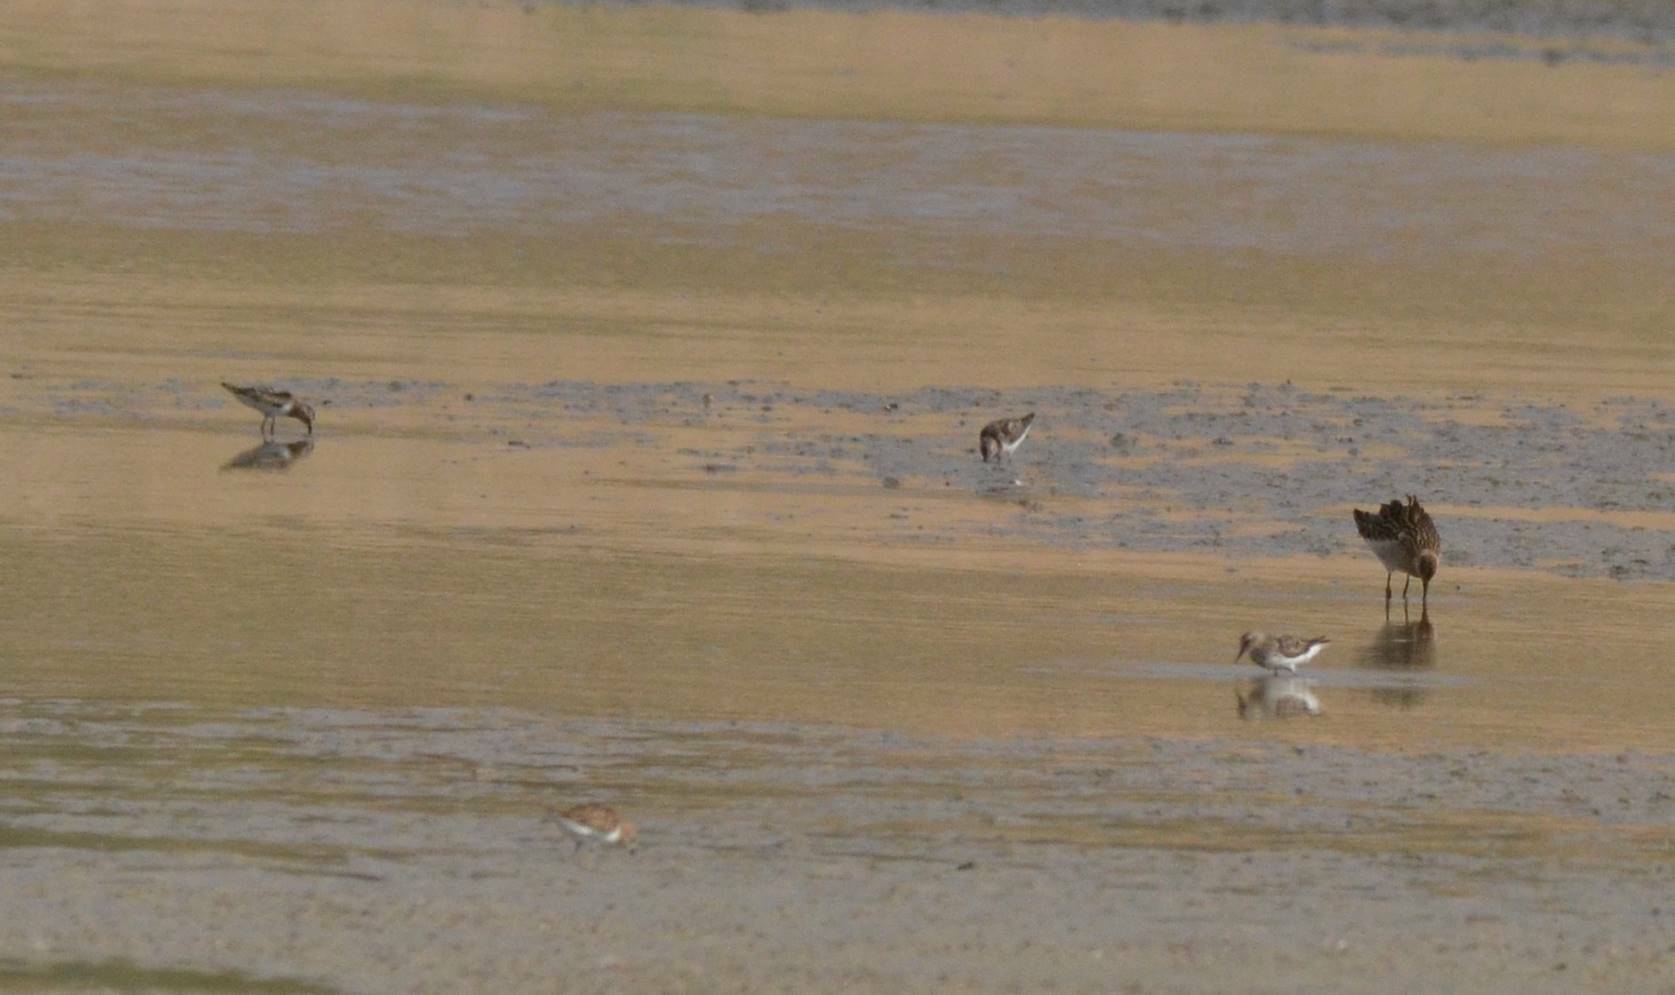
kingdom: Animalia
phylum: Chordata
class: Aves
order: Charadriiformes
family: Scolopacidae
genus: Calidris
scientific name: Calidris minuta
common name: Little stint
